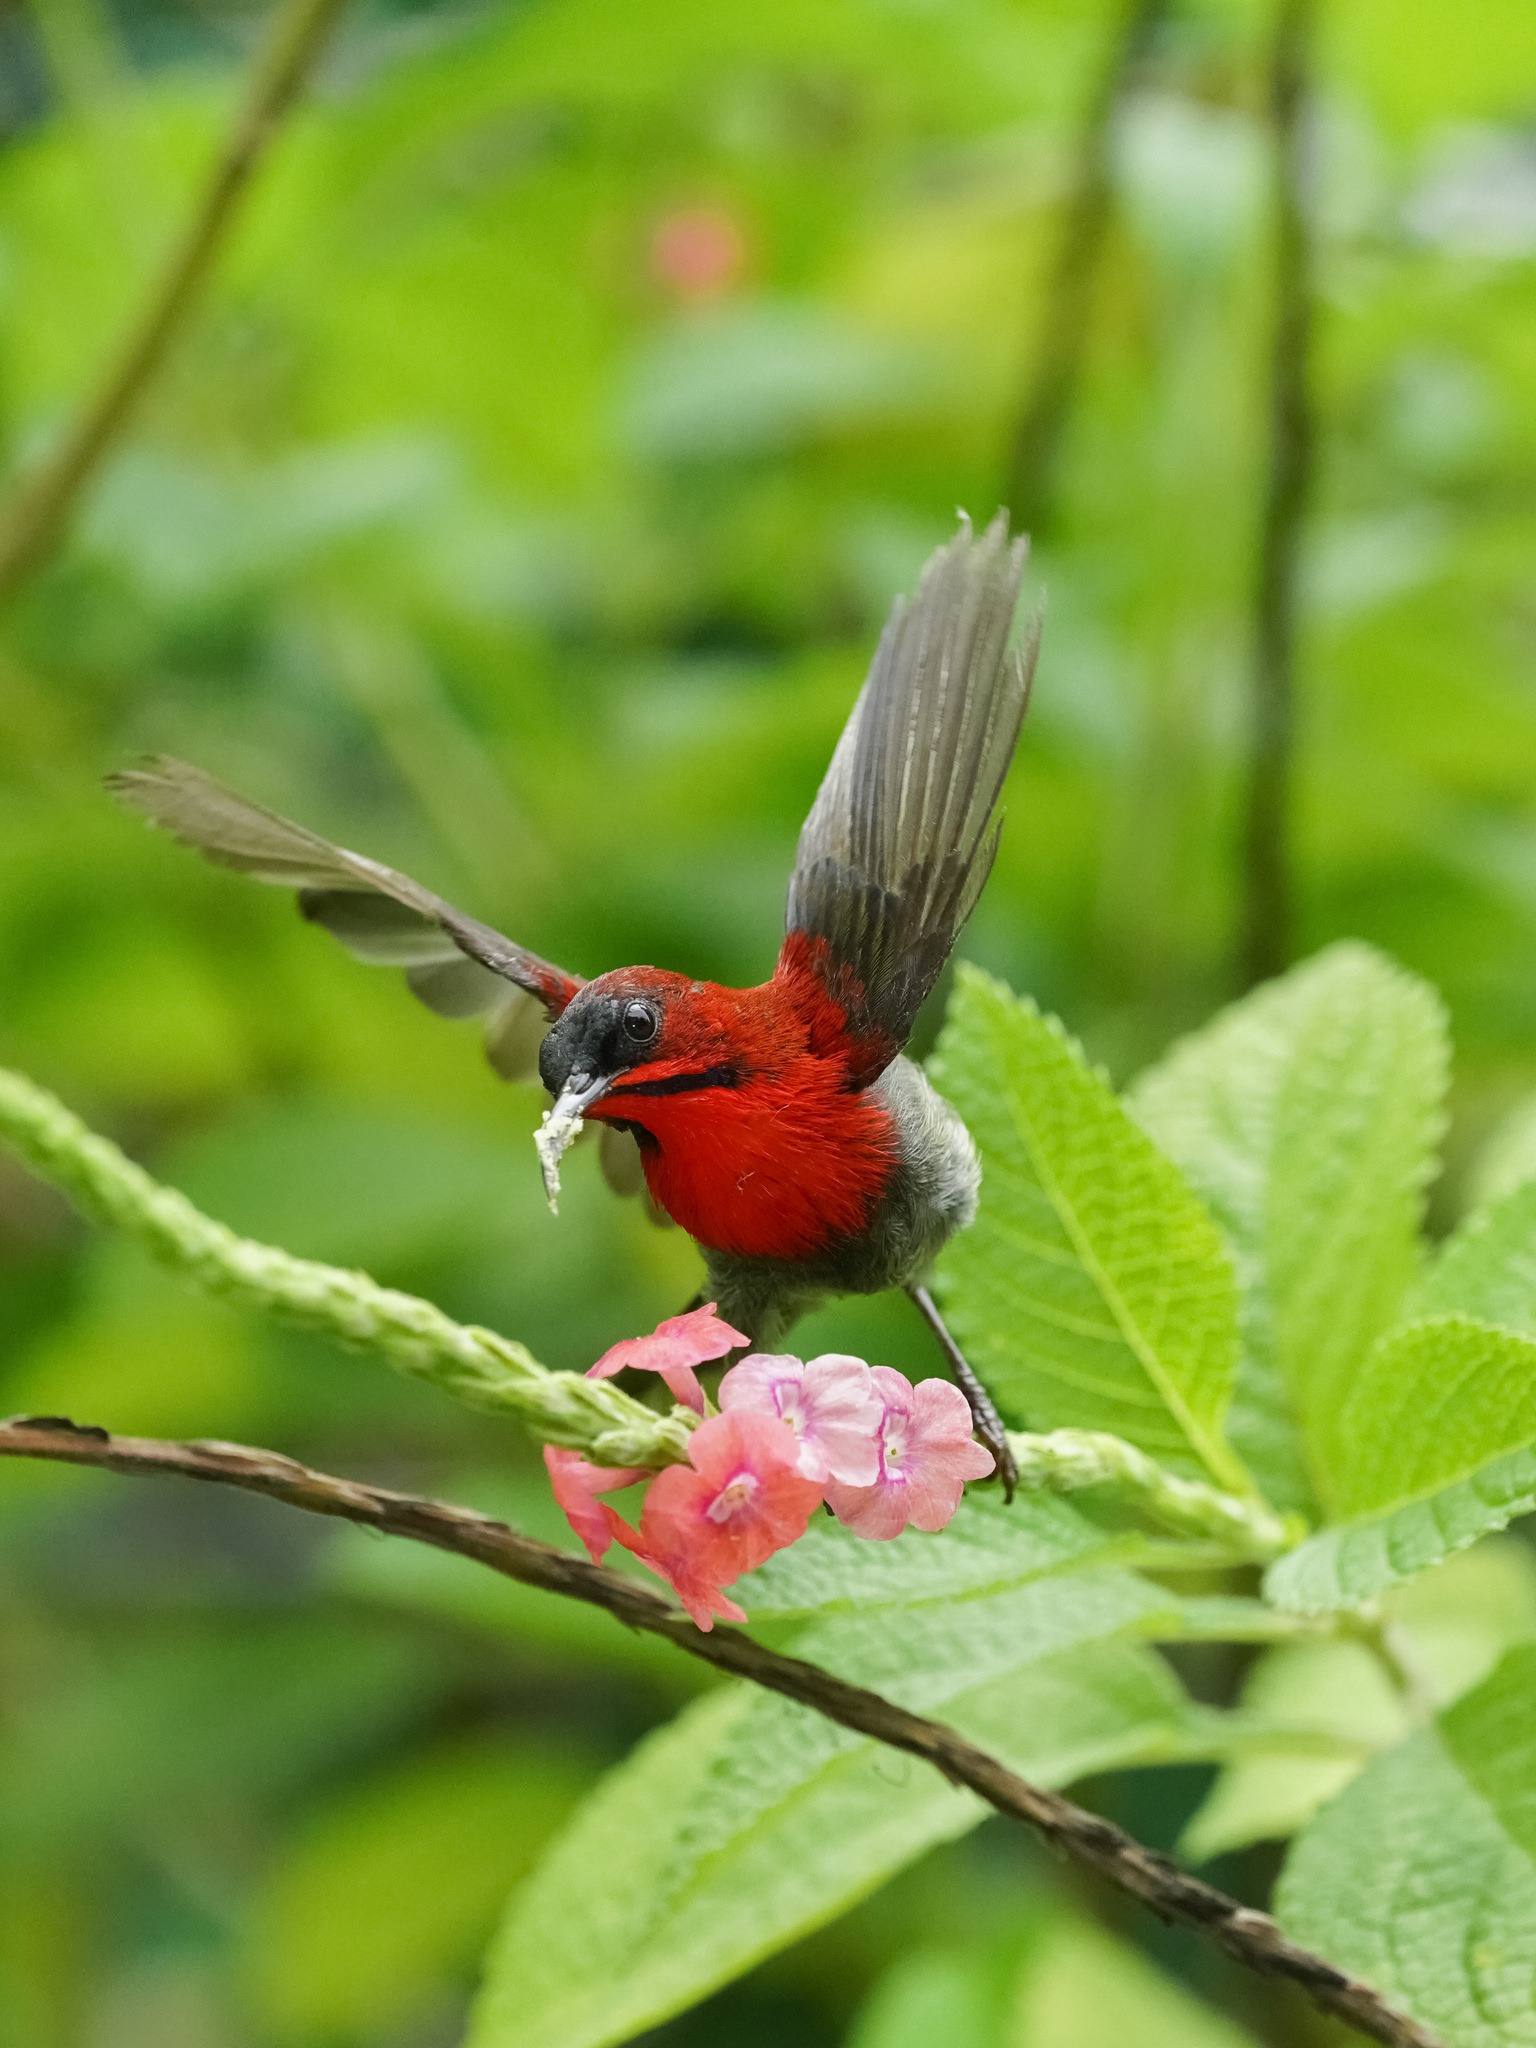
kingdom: Animalia
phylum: Chordata
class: Aves
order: Passeriformes
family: Nectariniidae
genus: Aethopyga
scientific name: Aethopyga siparaja
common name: Crimson sunbird
